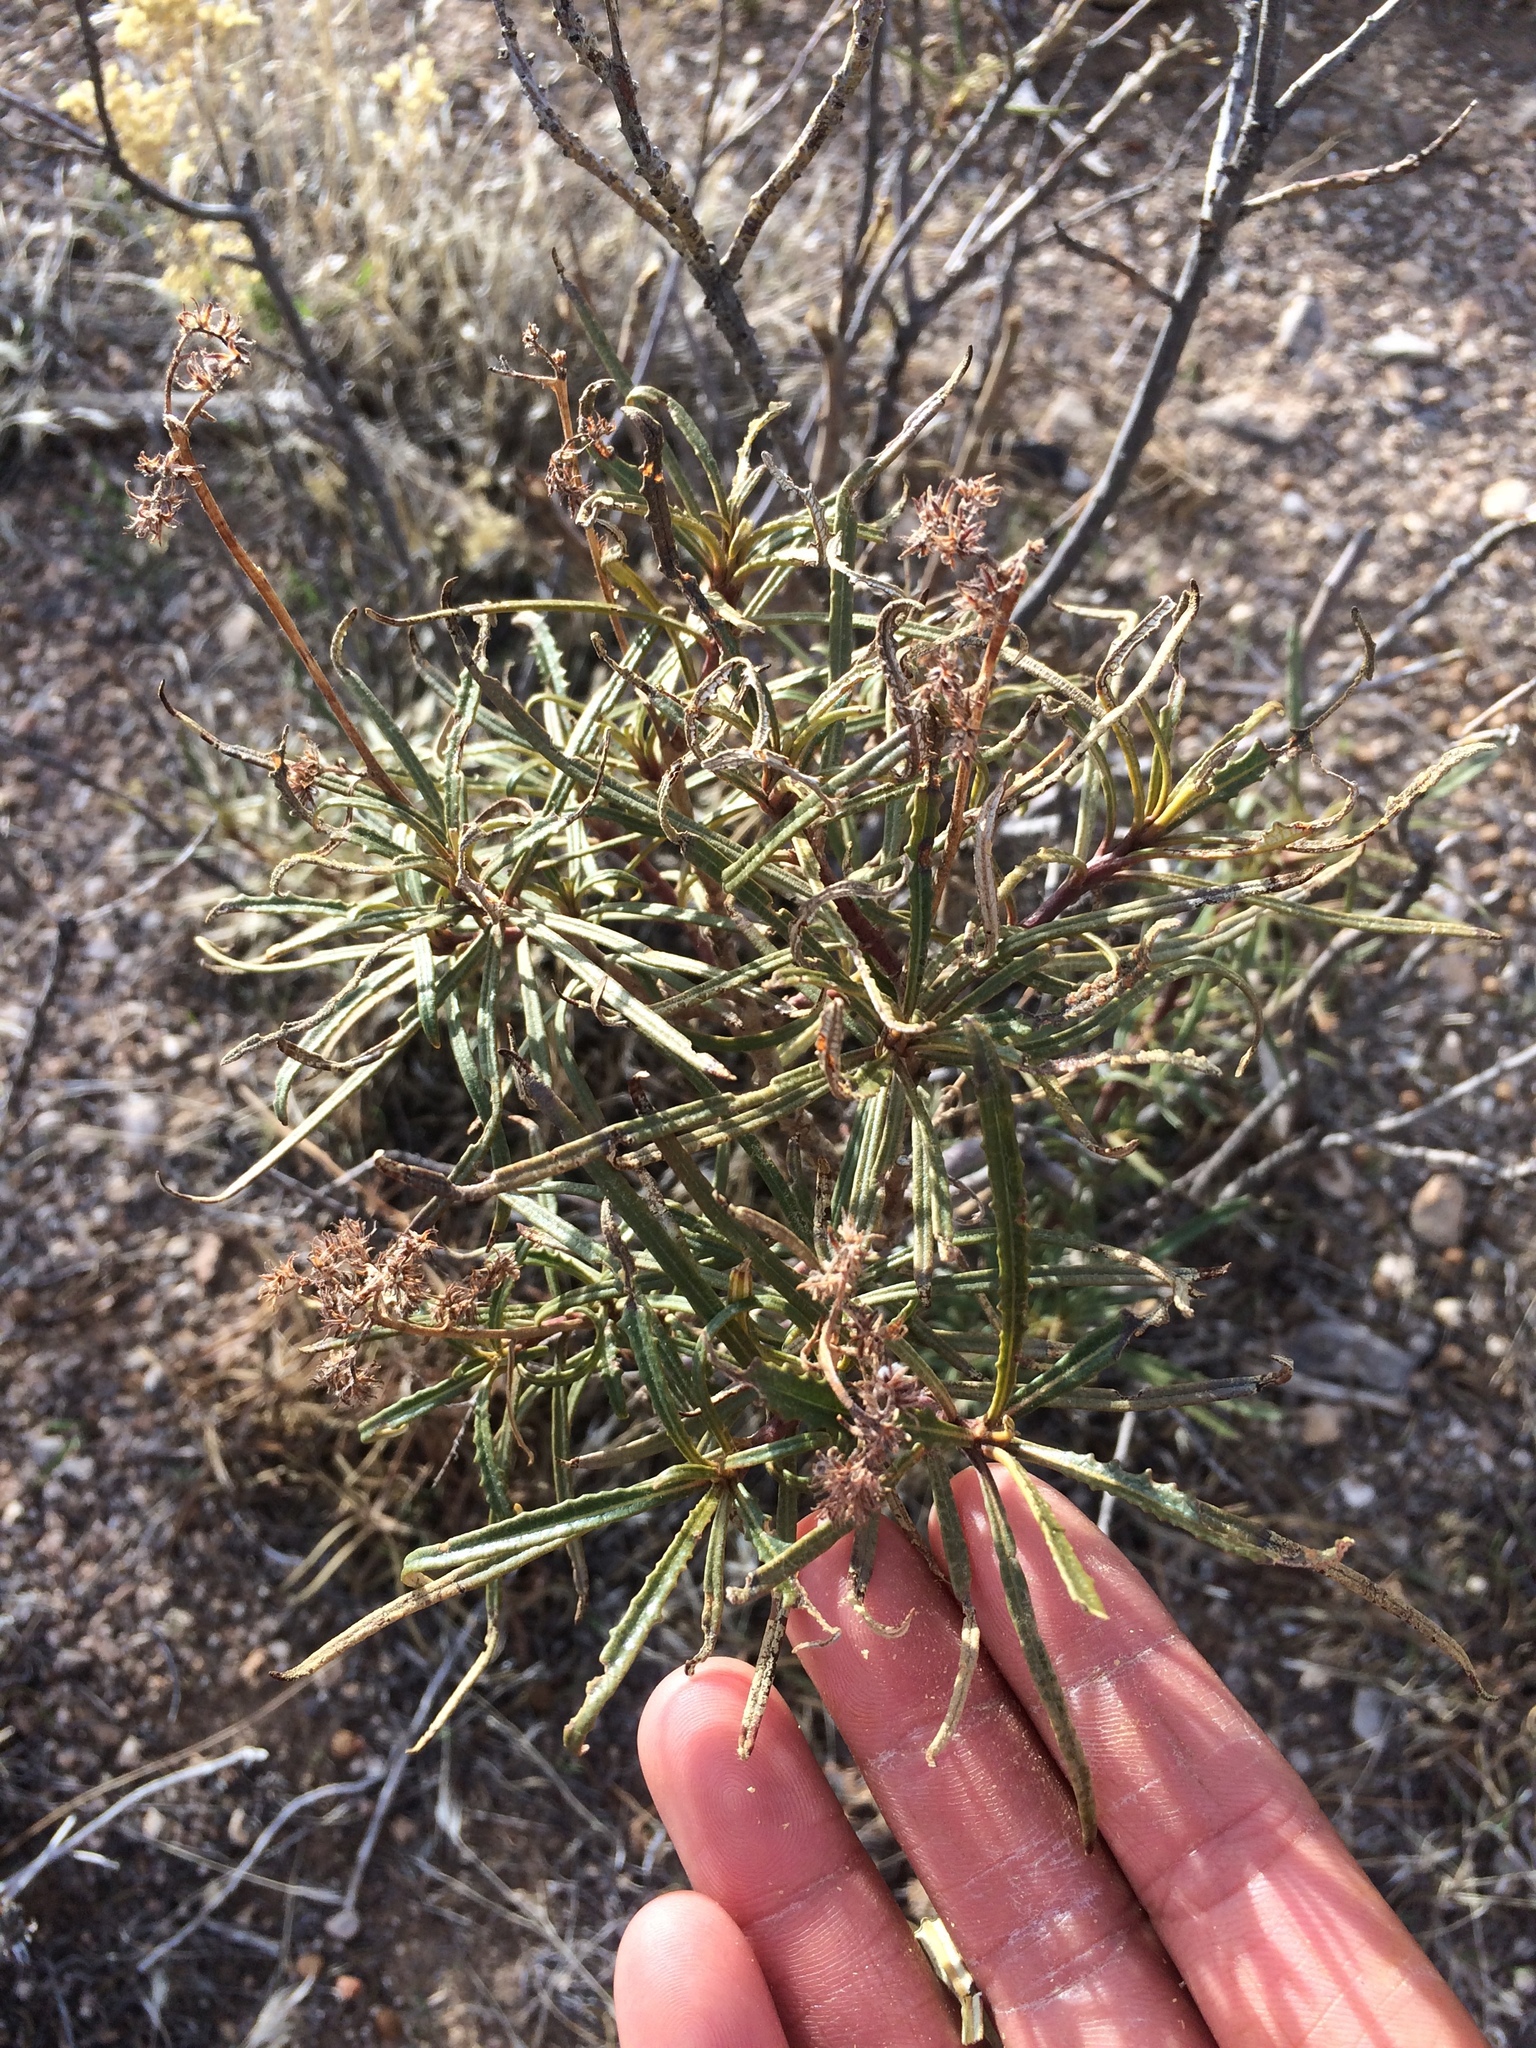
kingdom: Plantae
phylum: Tracheophyta
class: Magnoliopsida
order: Boraginales
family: Namaceae
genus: Eriodictyon
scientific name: Eriodictyon angustifolium
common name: Narrow-leaf yerba santa
